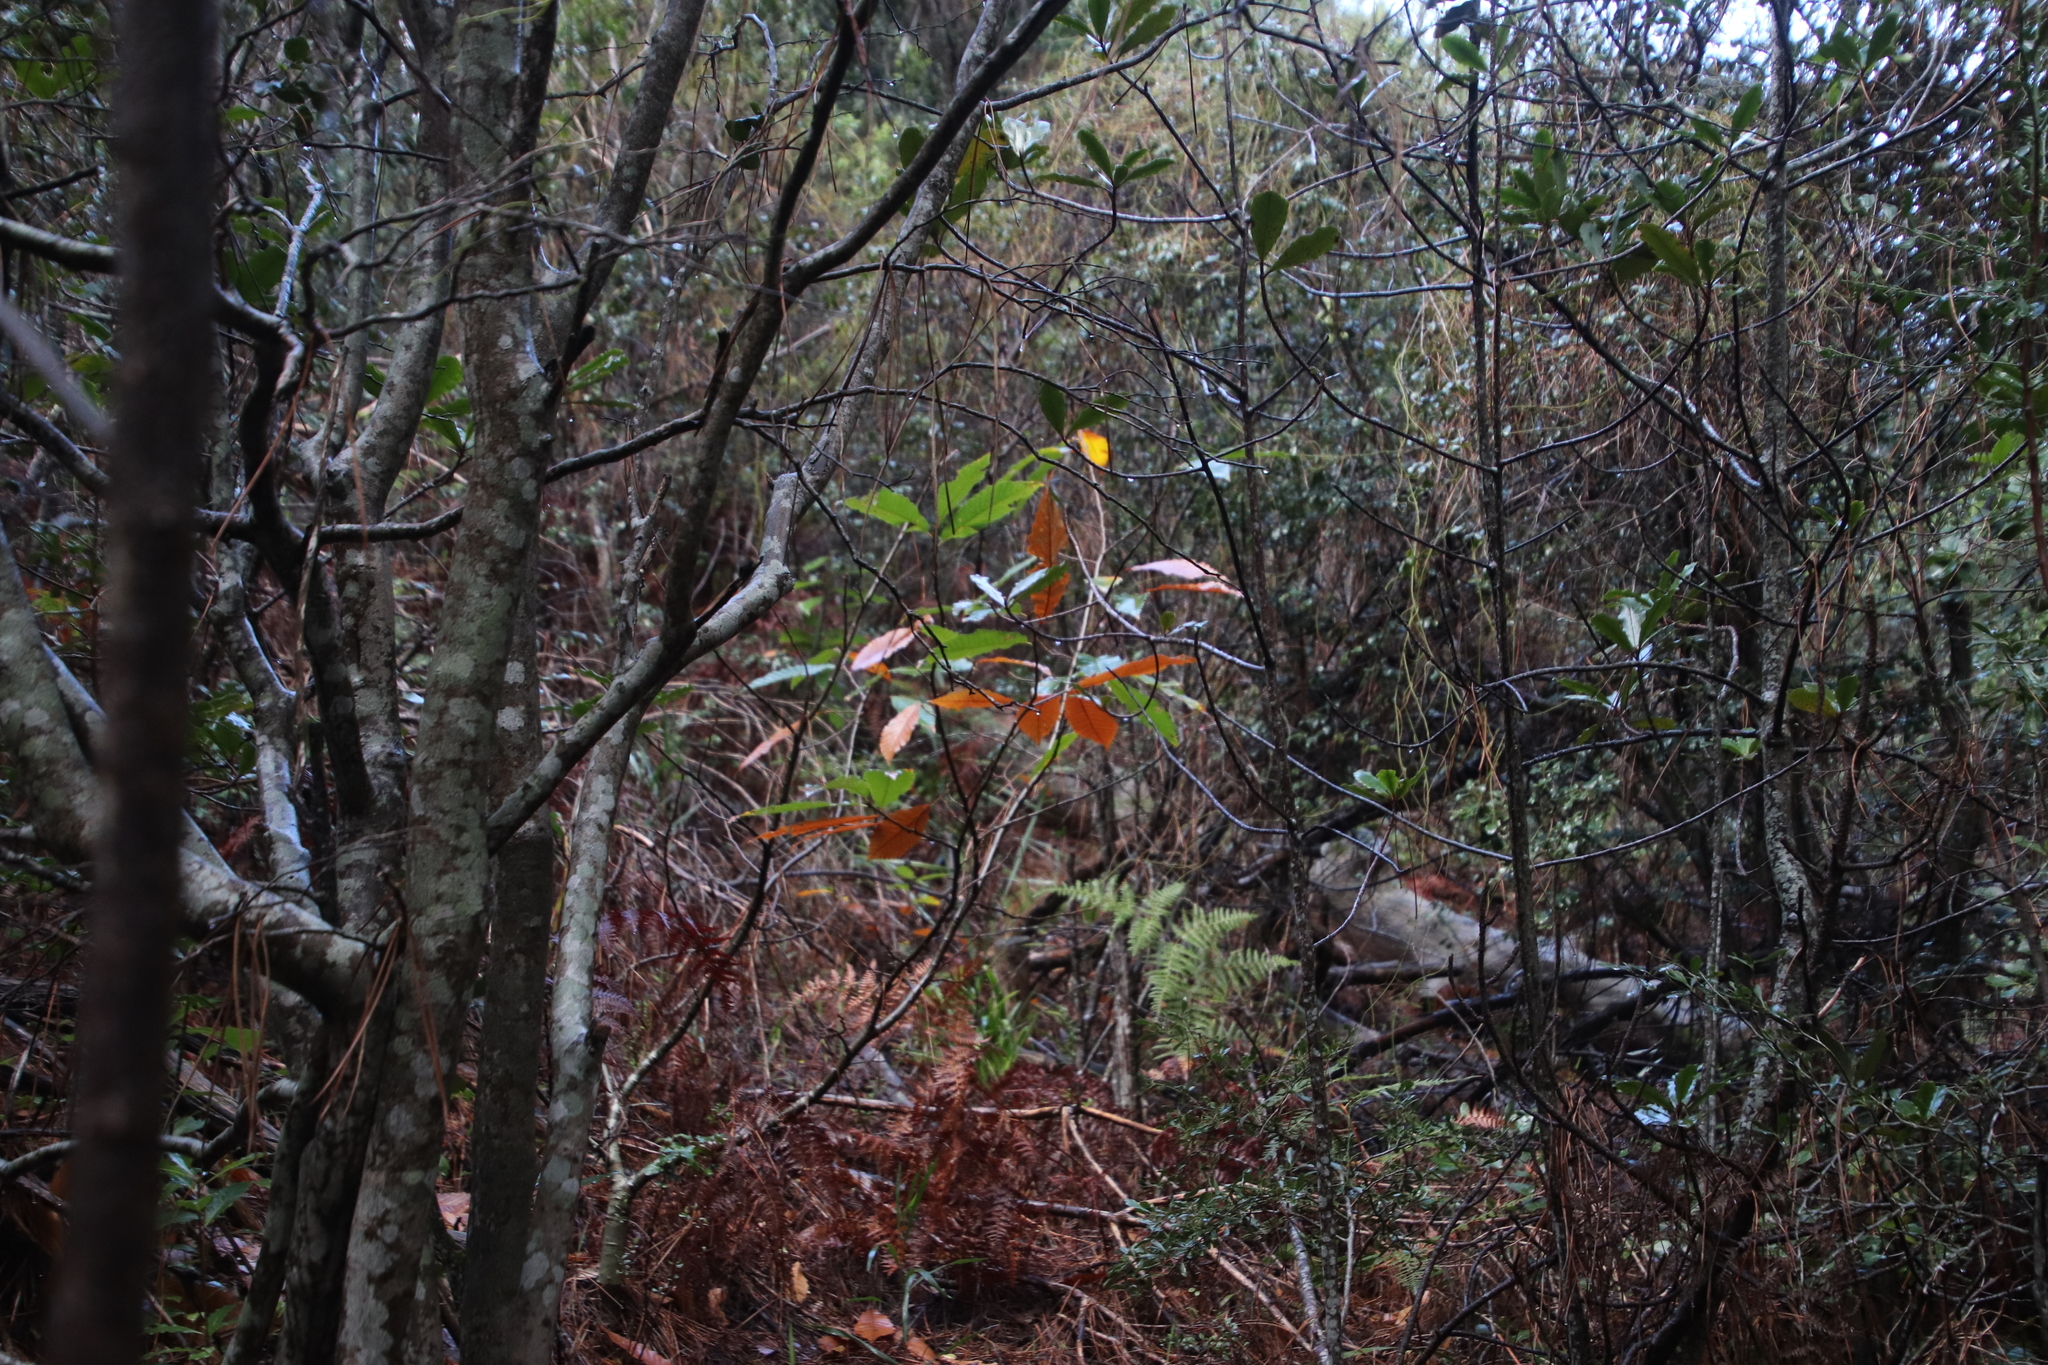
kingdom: Plantae
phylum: Tracheophyta
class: Magnoliopsida
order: Fagales
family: Fagaceae
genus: Castanea
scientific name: Castanea sativa
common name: Sweet chestnut
